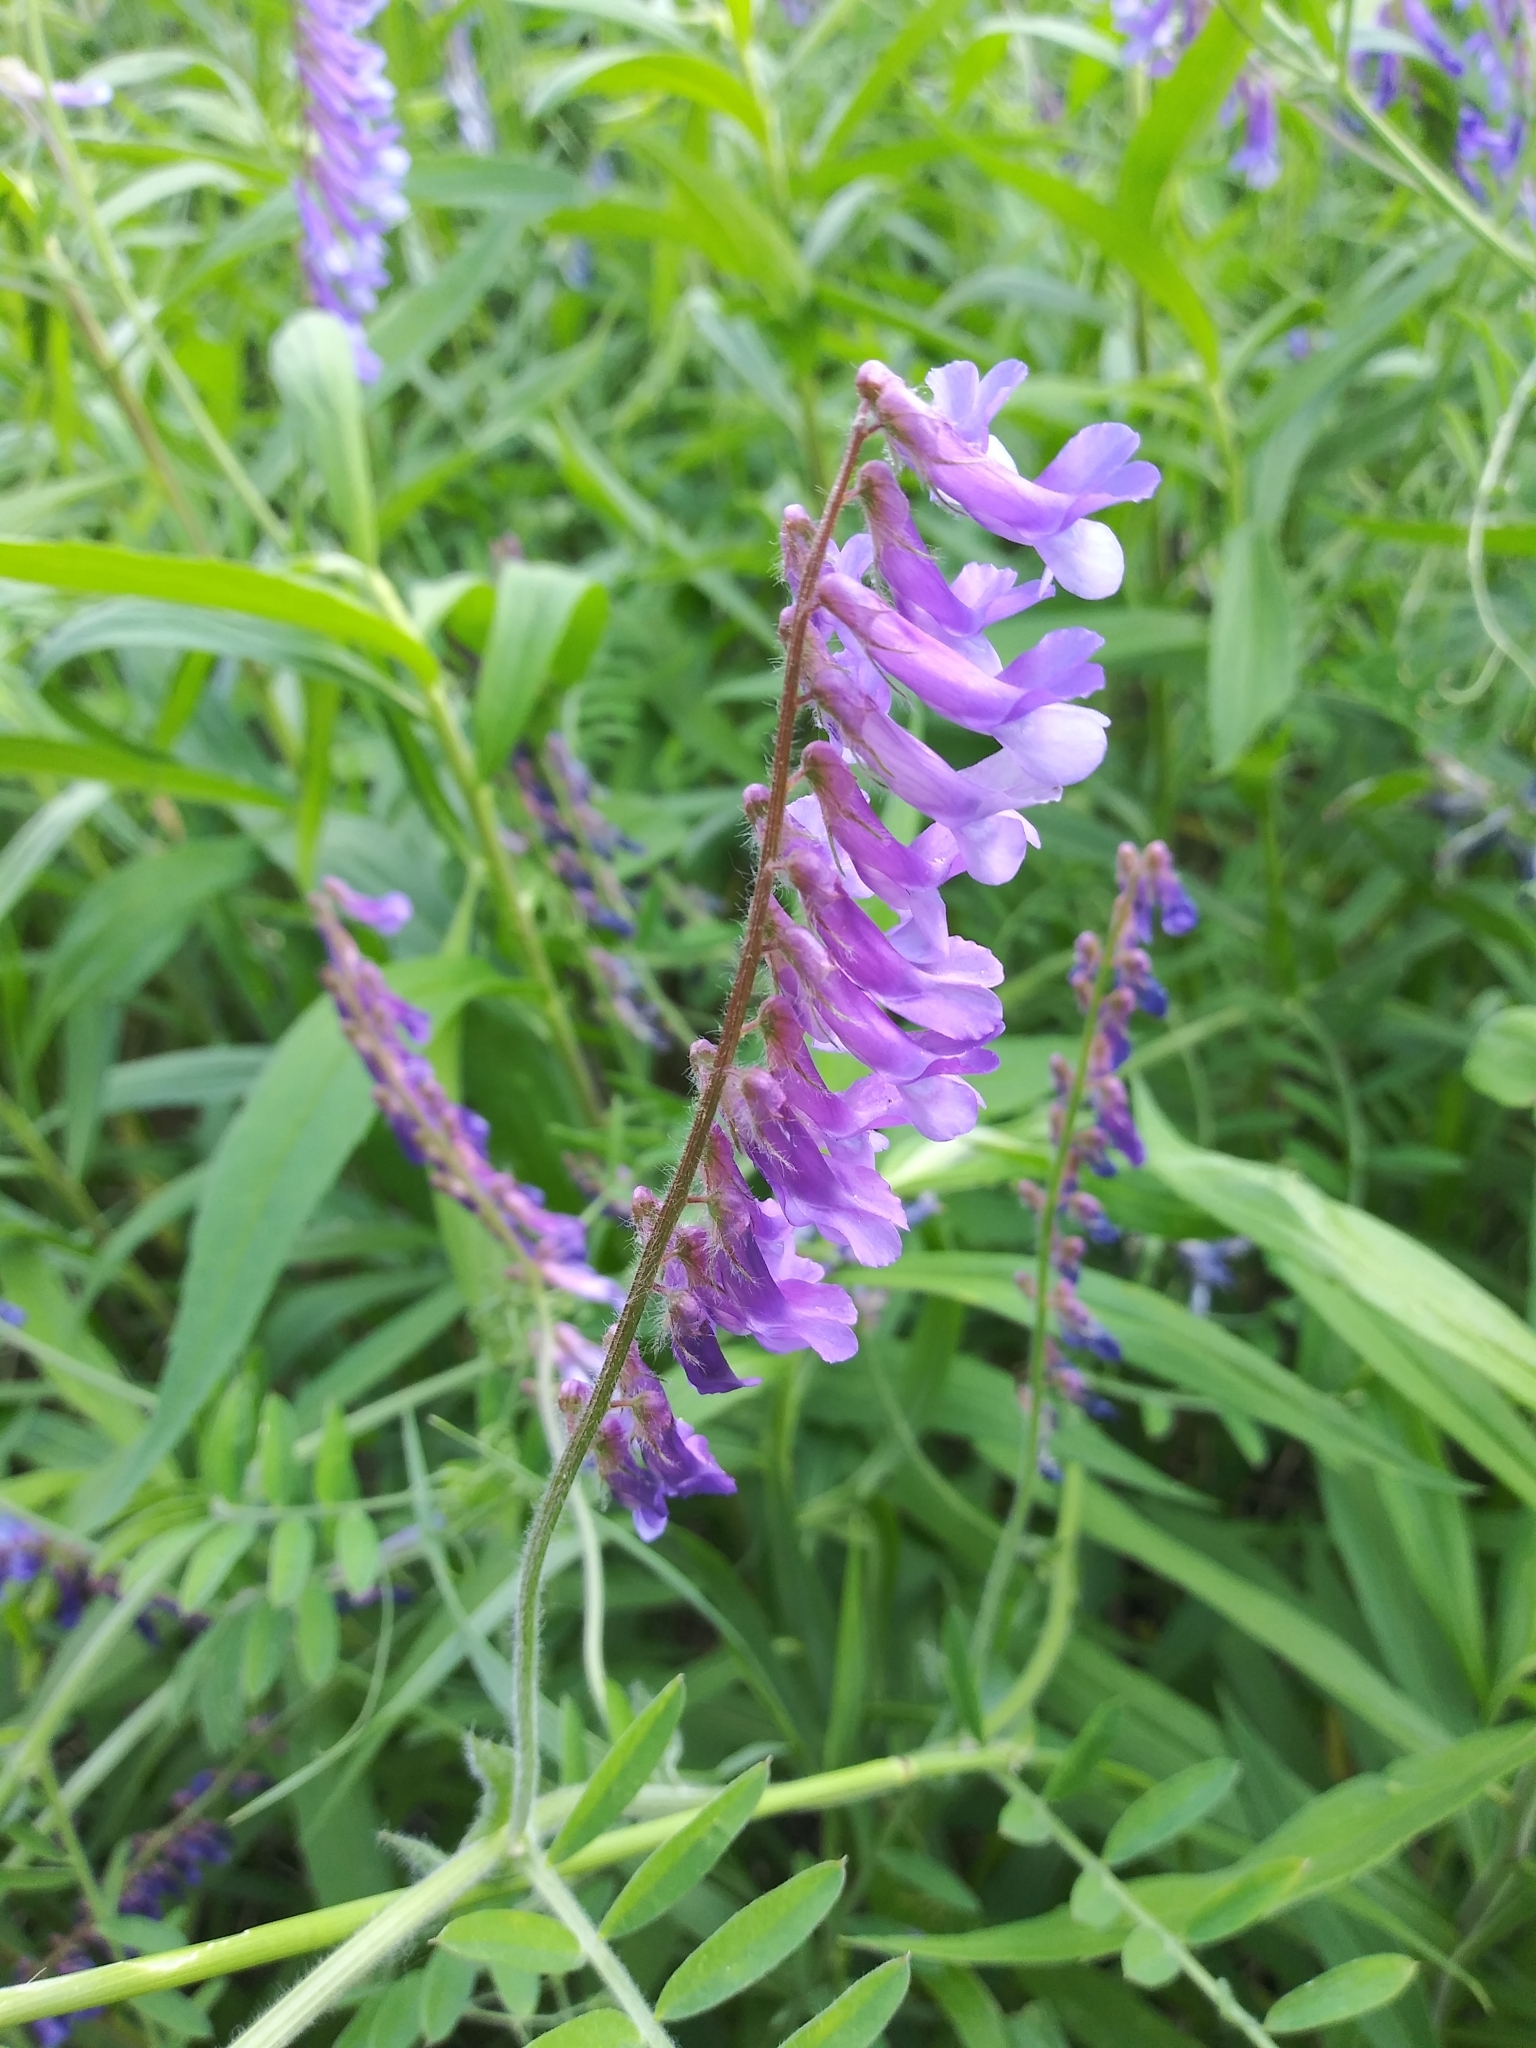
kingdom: Plantae
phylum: Tracheophyta
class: Magnoliopsida
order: Fabales
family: Fabaceae
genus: Vicia
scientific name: Vicia villosa
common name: Fodder vetch
